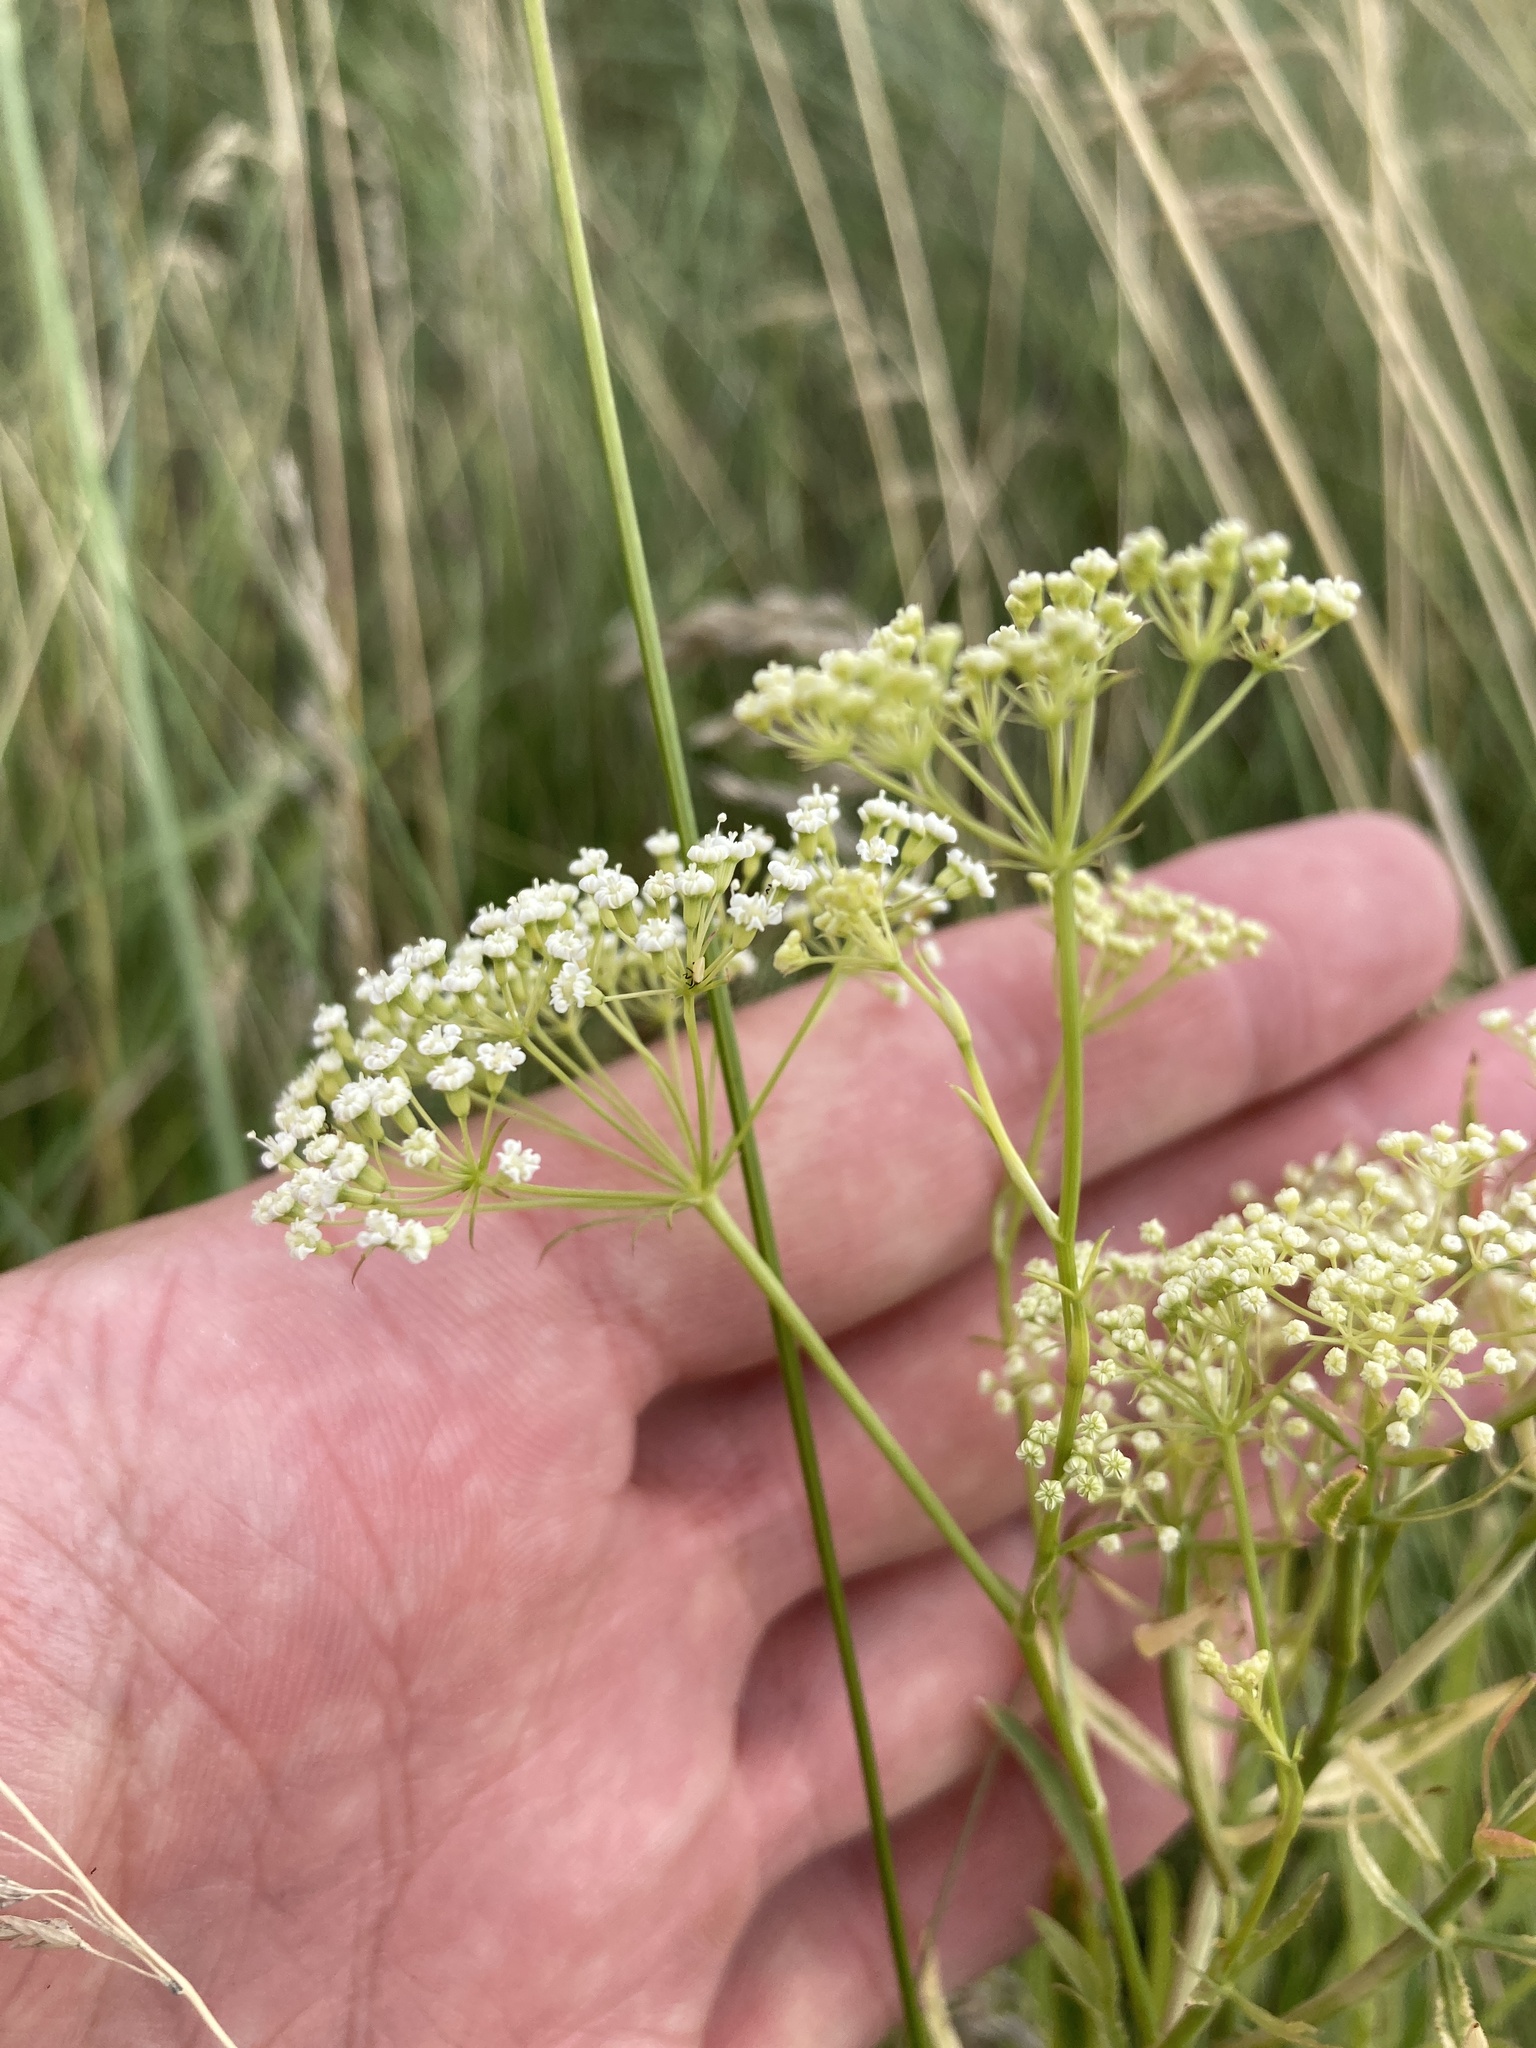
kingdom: Plantae
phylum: Tracheophyta
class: Magnoliopsida
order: Apiales
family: Apiaceae
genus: Falcaria
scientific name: Falcaria vulgaris
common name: Longleaf
